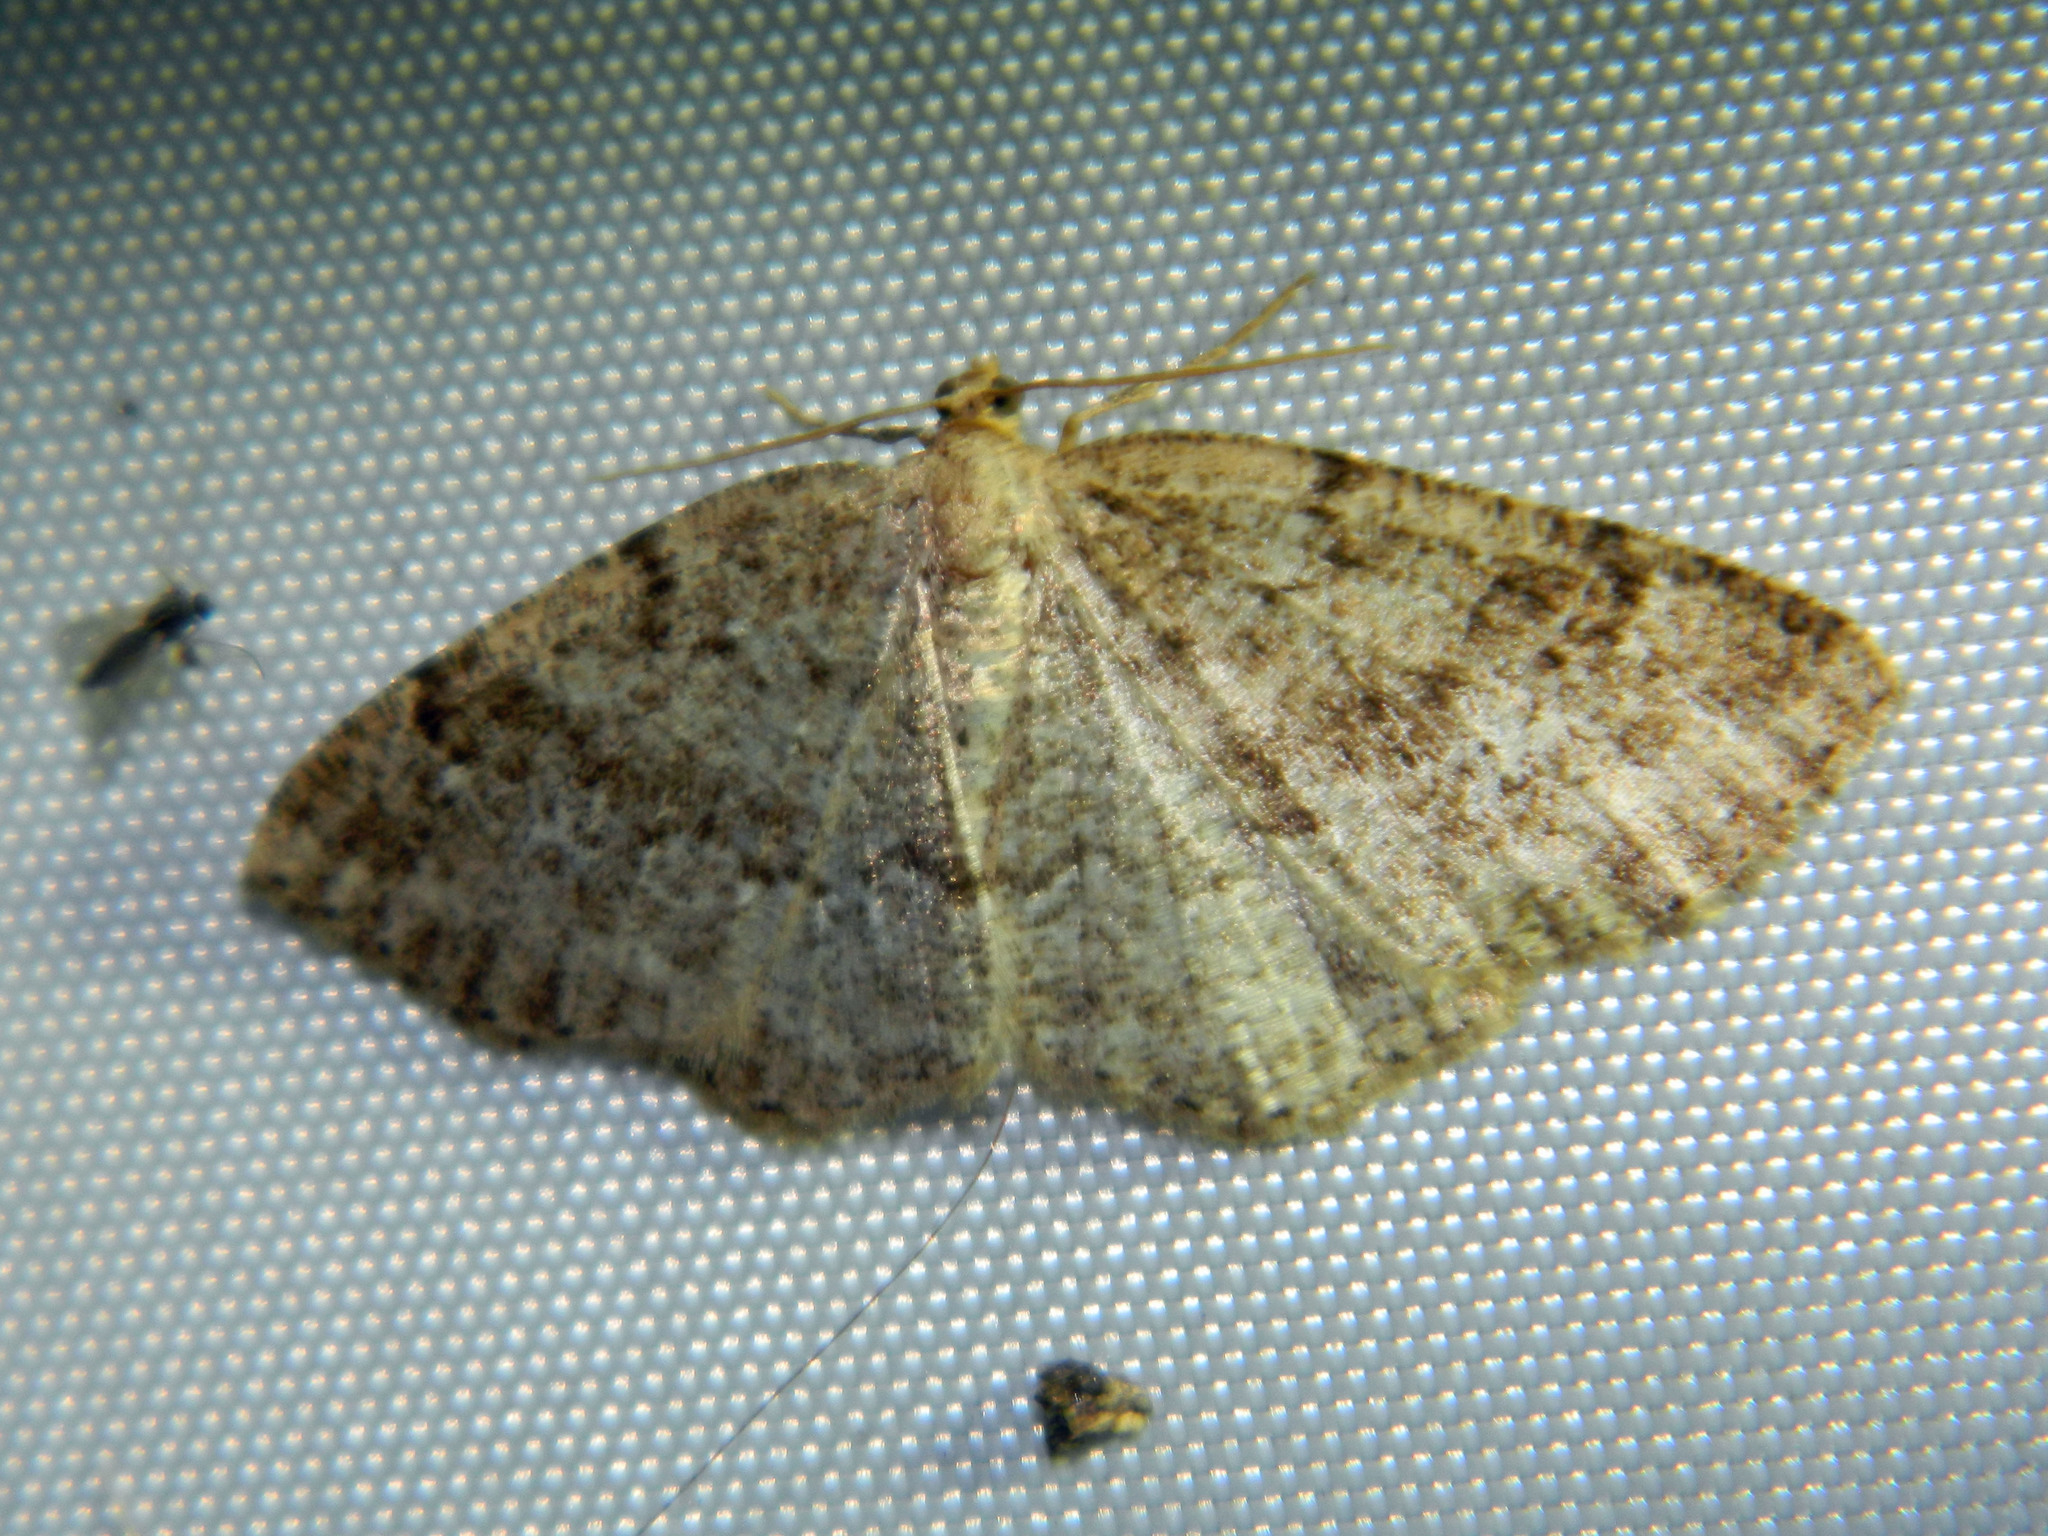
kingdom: Animalia
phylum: Arthropoda
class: Insecta
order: Lepidoptera
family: Geometridae
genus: Homochlodes
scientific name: Homochlodes fritillaria
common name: Pale homochlodes
